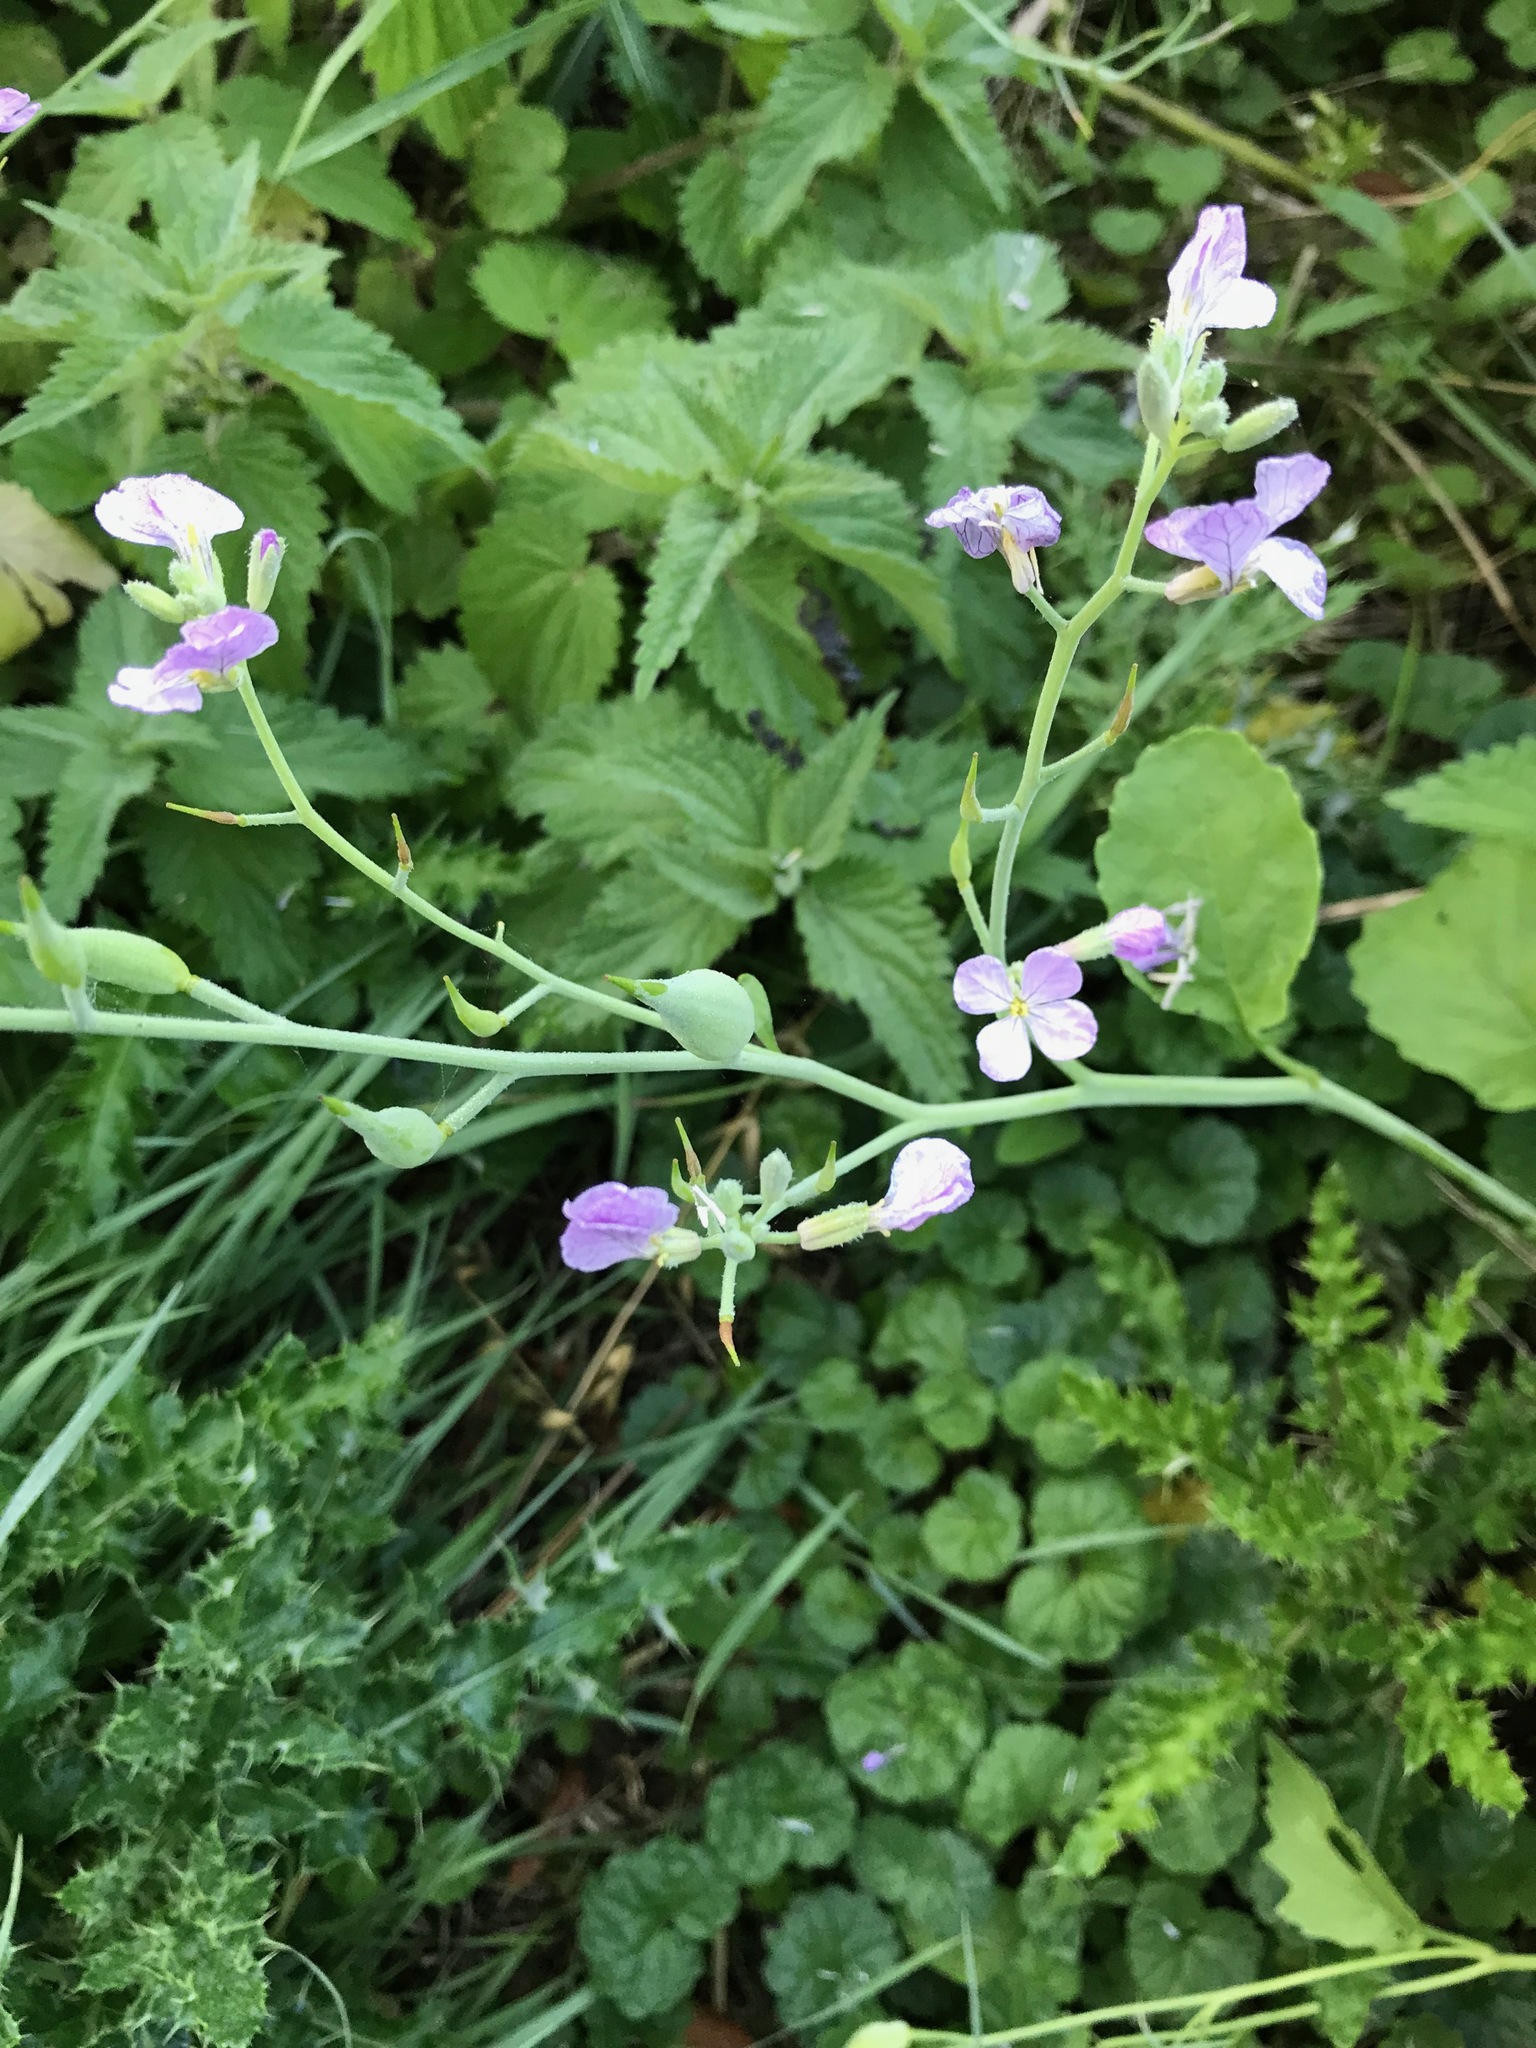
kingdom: Plantae
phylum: Tracheophyta
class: Magnoliopsida
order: Brassicales
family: Brassicaceae
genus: Raphanus
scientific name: Raphanus sativus
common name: Cultivated radish
